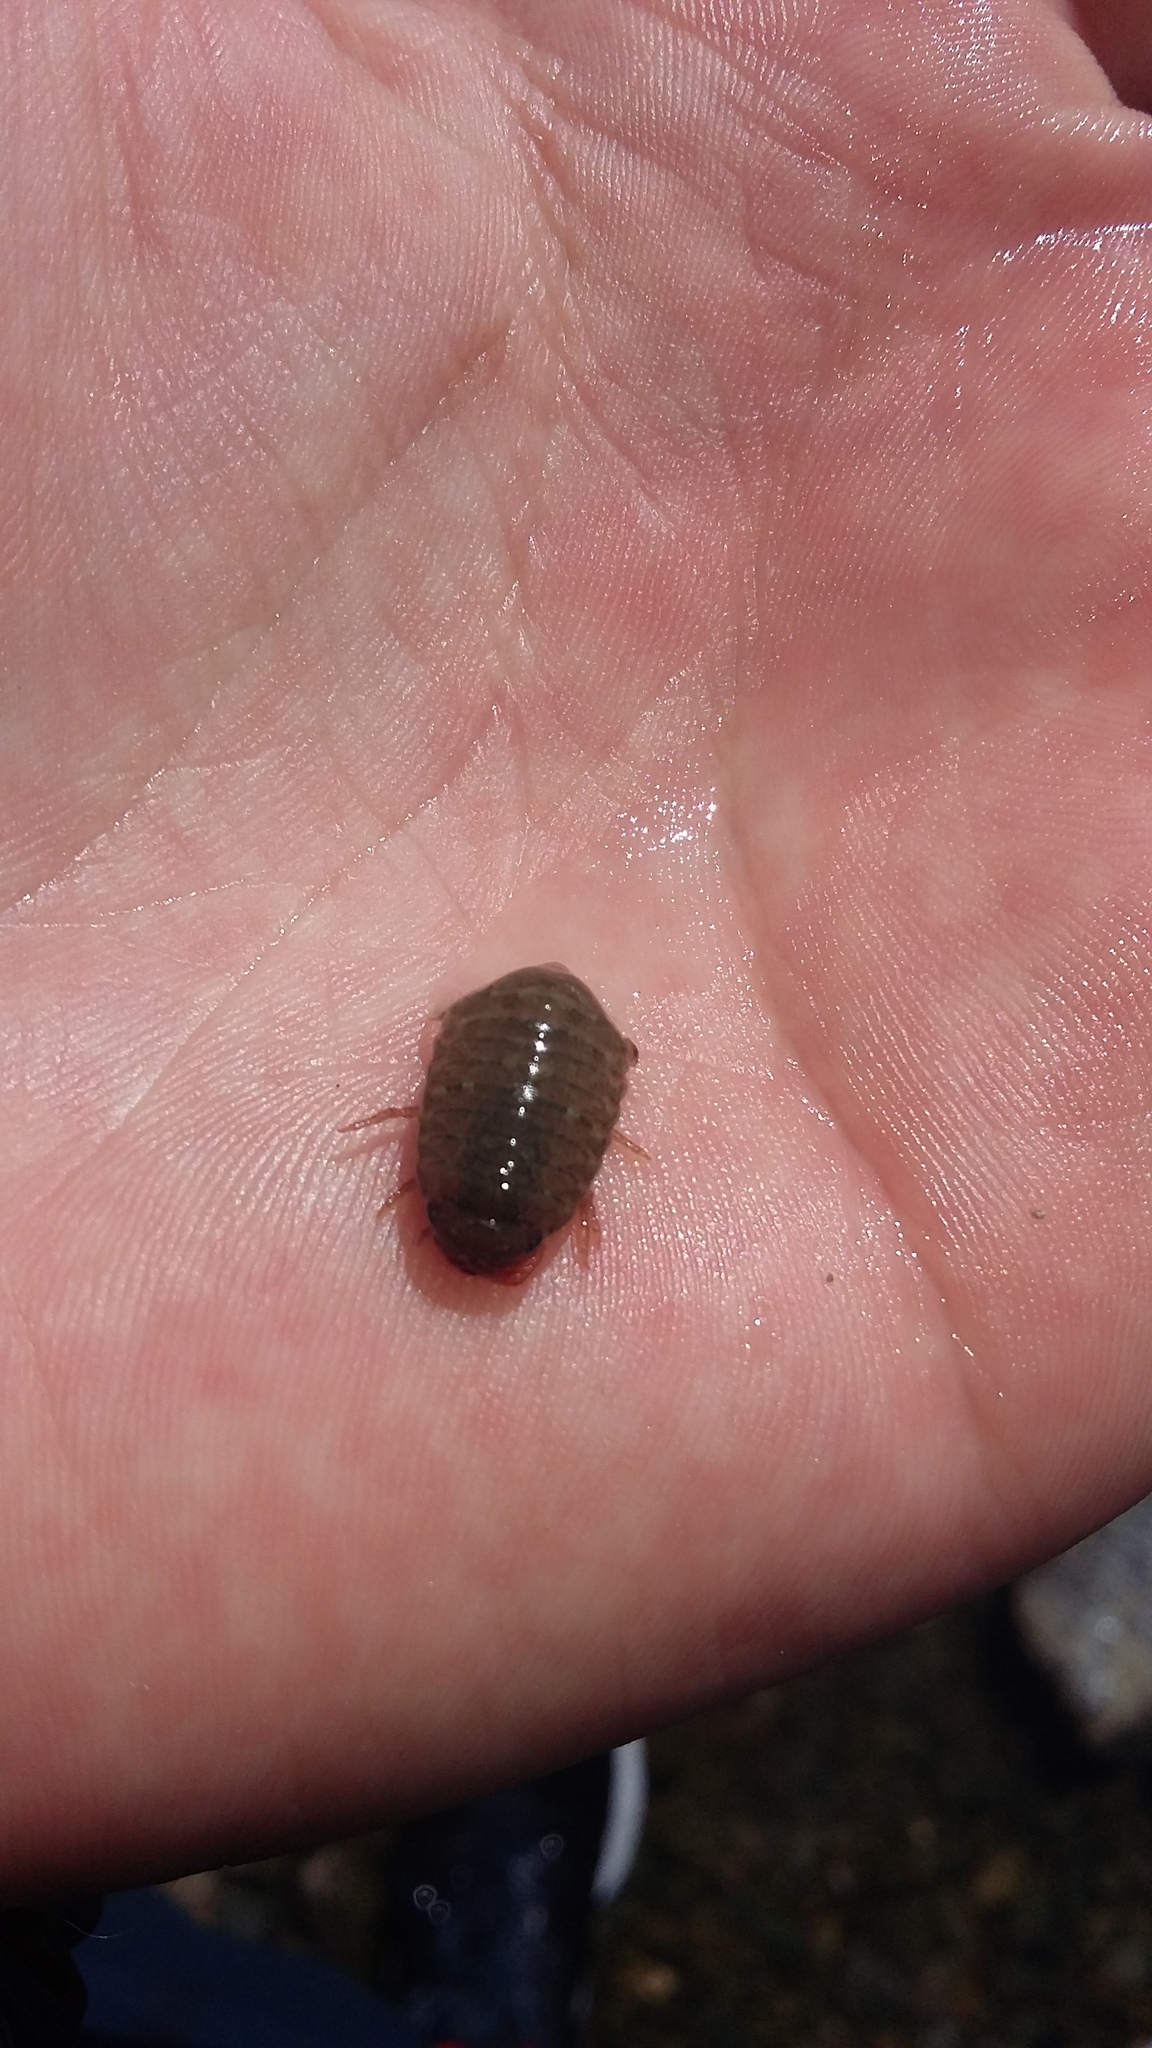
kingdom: Animalia
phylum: Arthropoda
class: Malacostraca
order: Isopoda
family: Sphaeromatidae
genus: Exosphaeroma
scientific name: Exosphaeroma gigas
